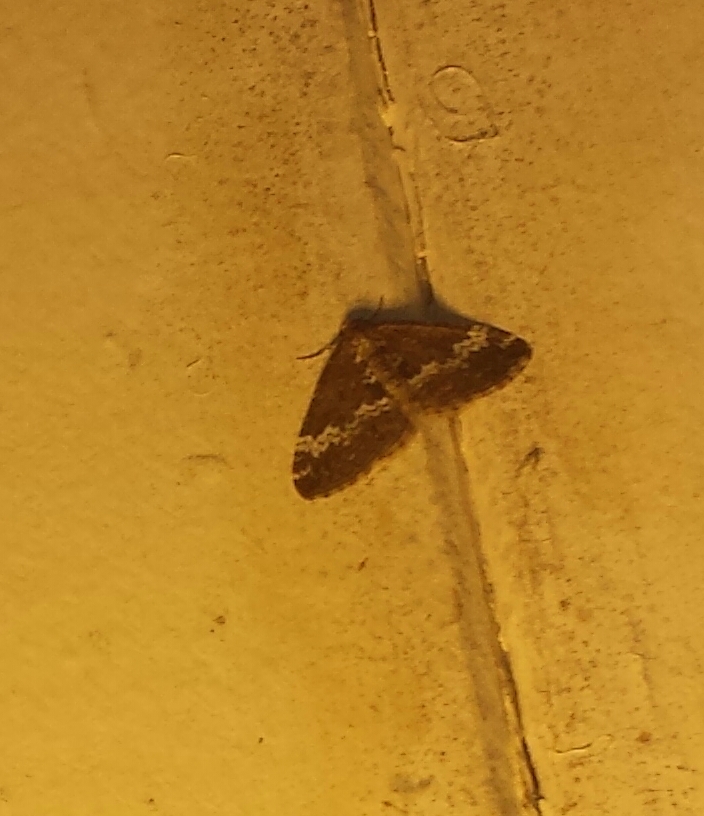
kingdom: Animalia
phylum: Arthropoda
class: Insecta
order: Lepidoptera
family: Geometridae
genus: Perizoma
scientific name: Perizoma alchemillata
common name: Small rivulet
